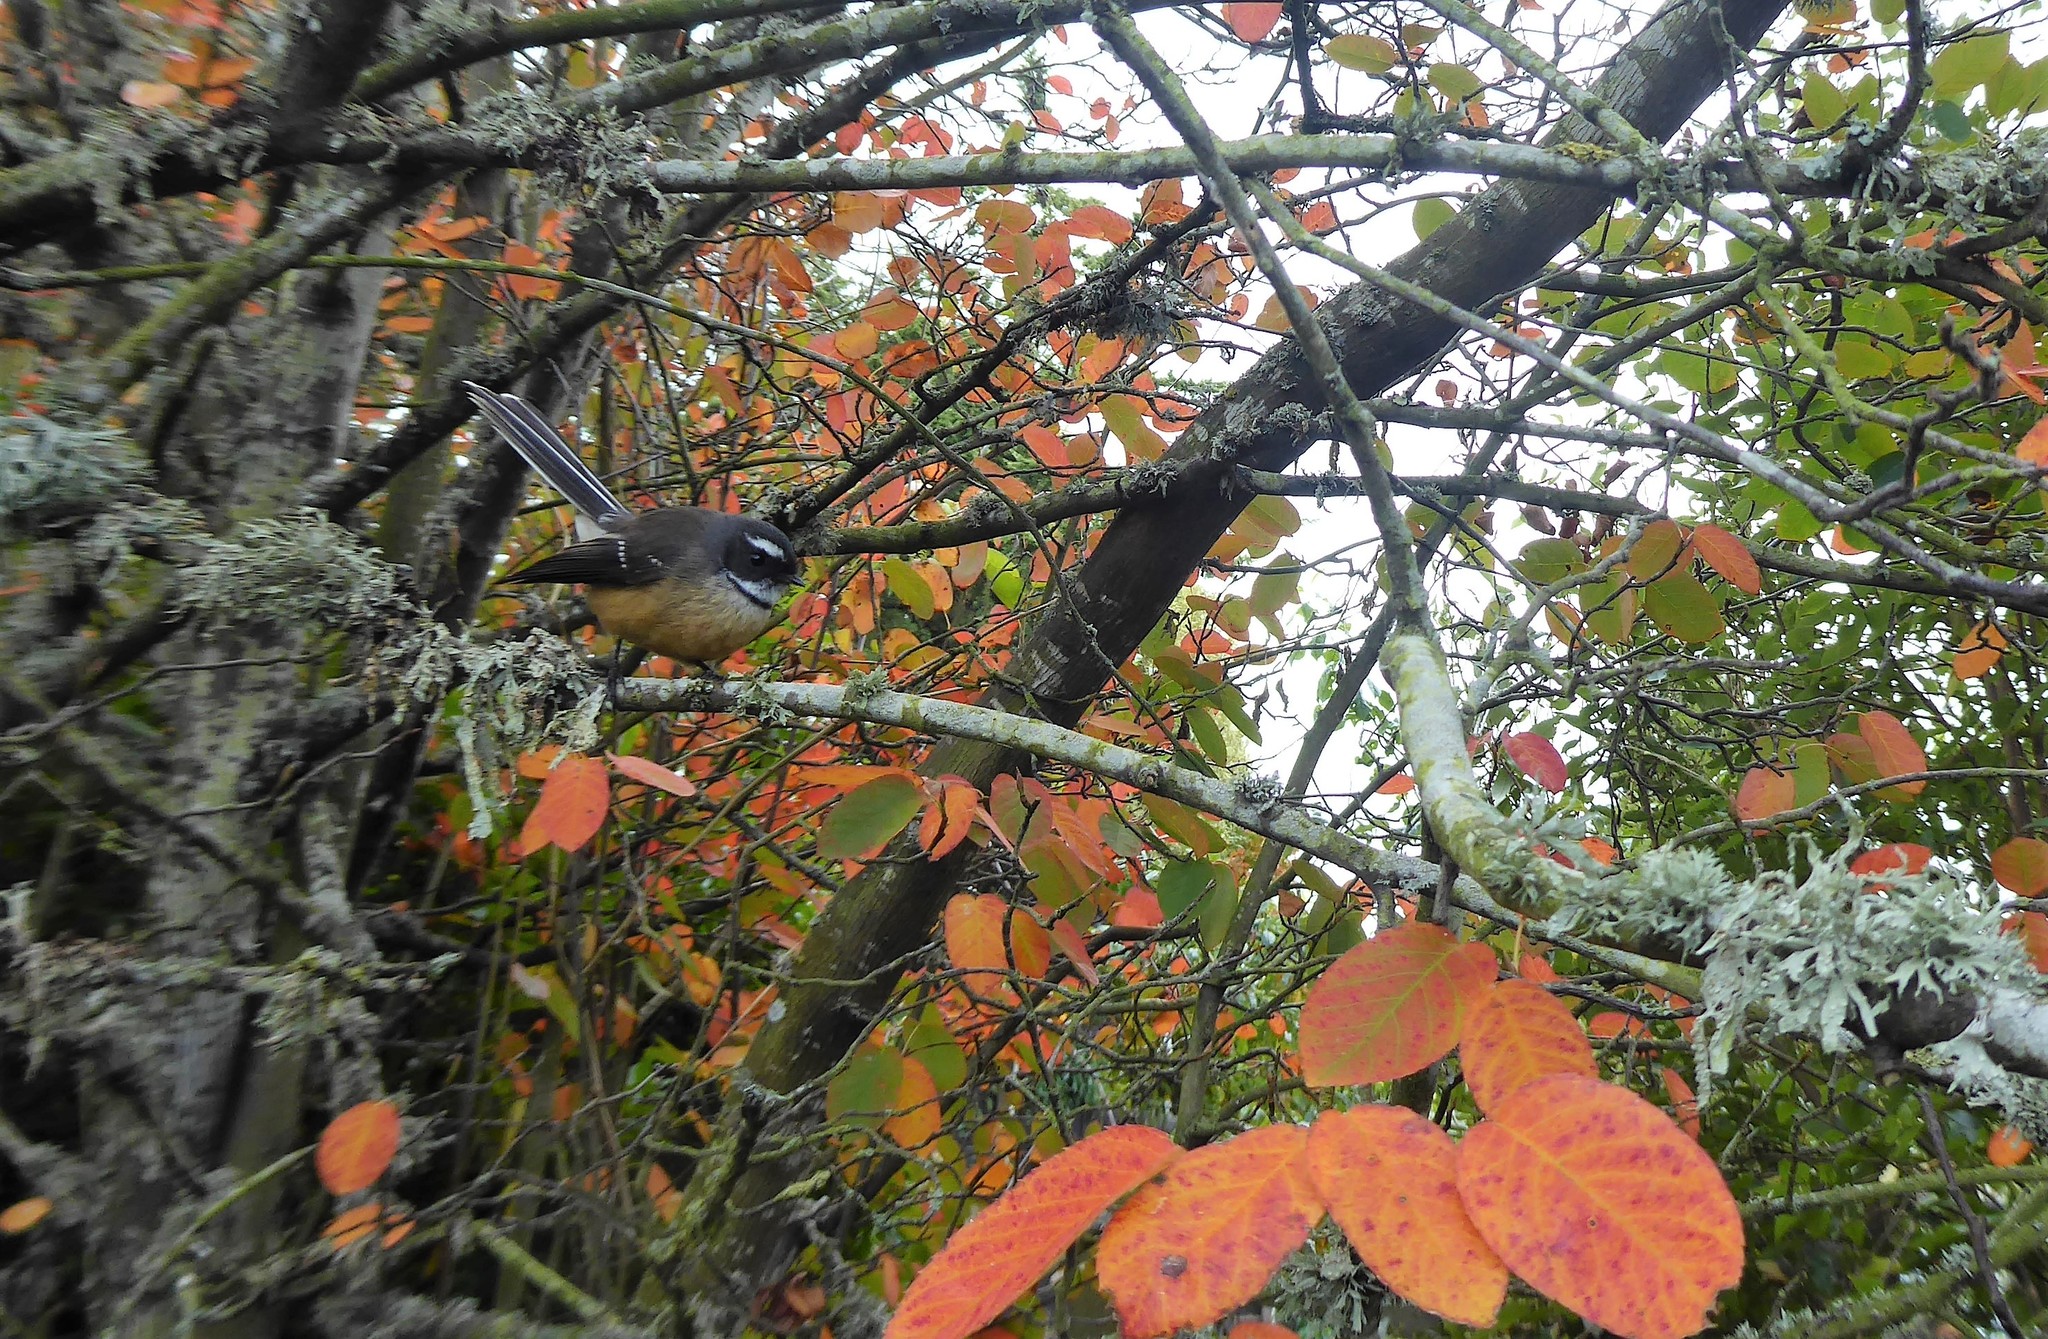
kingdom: Animalia
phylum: Chordata
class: Aves
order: Passeriformes
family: Rhipiduridae
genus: Rhipidura
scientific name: Rhipidura fuliginosa
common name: New zealand fantail
